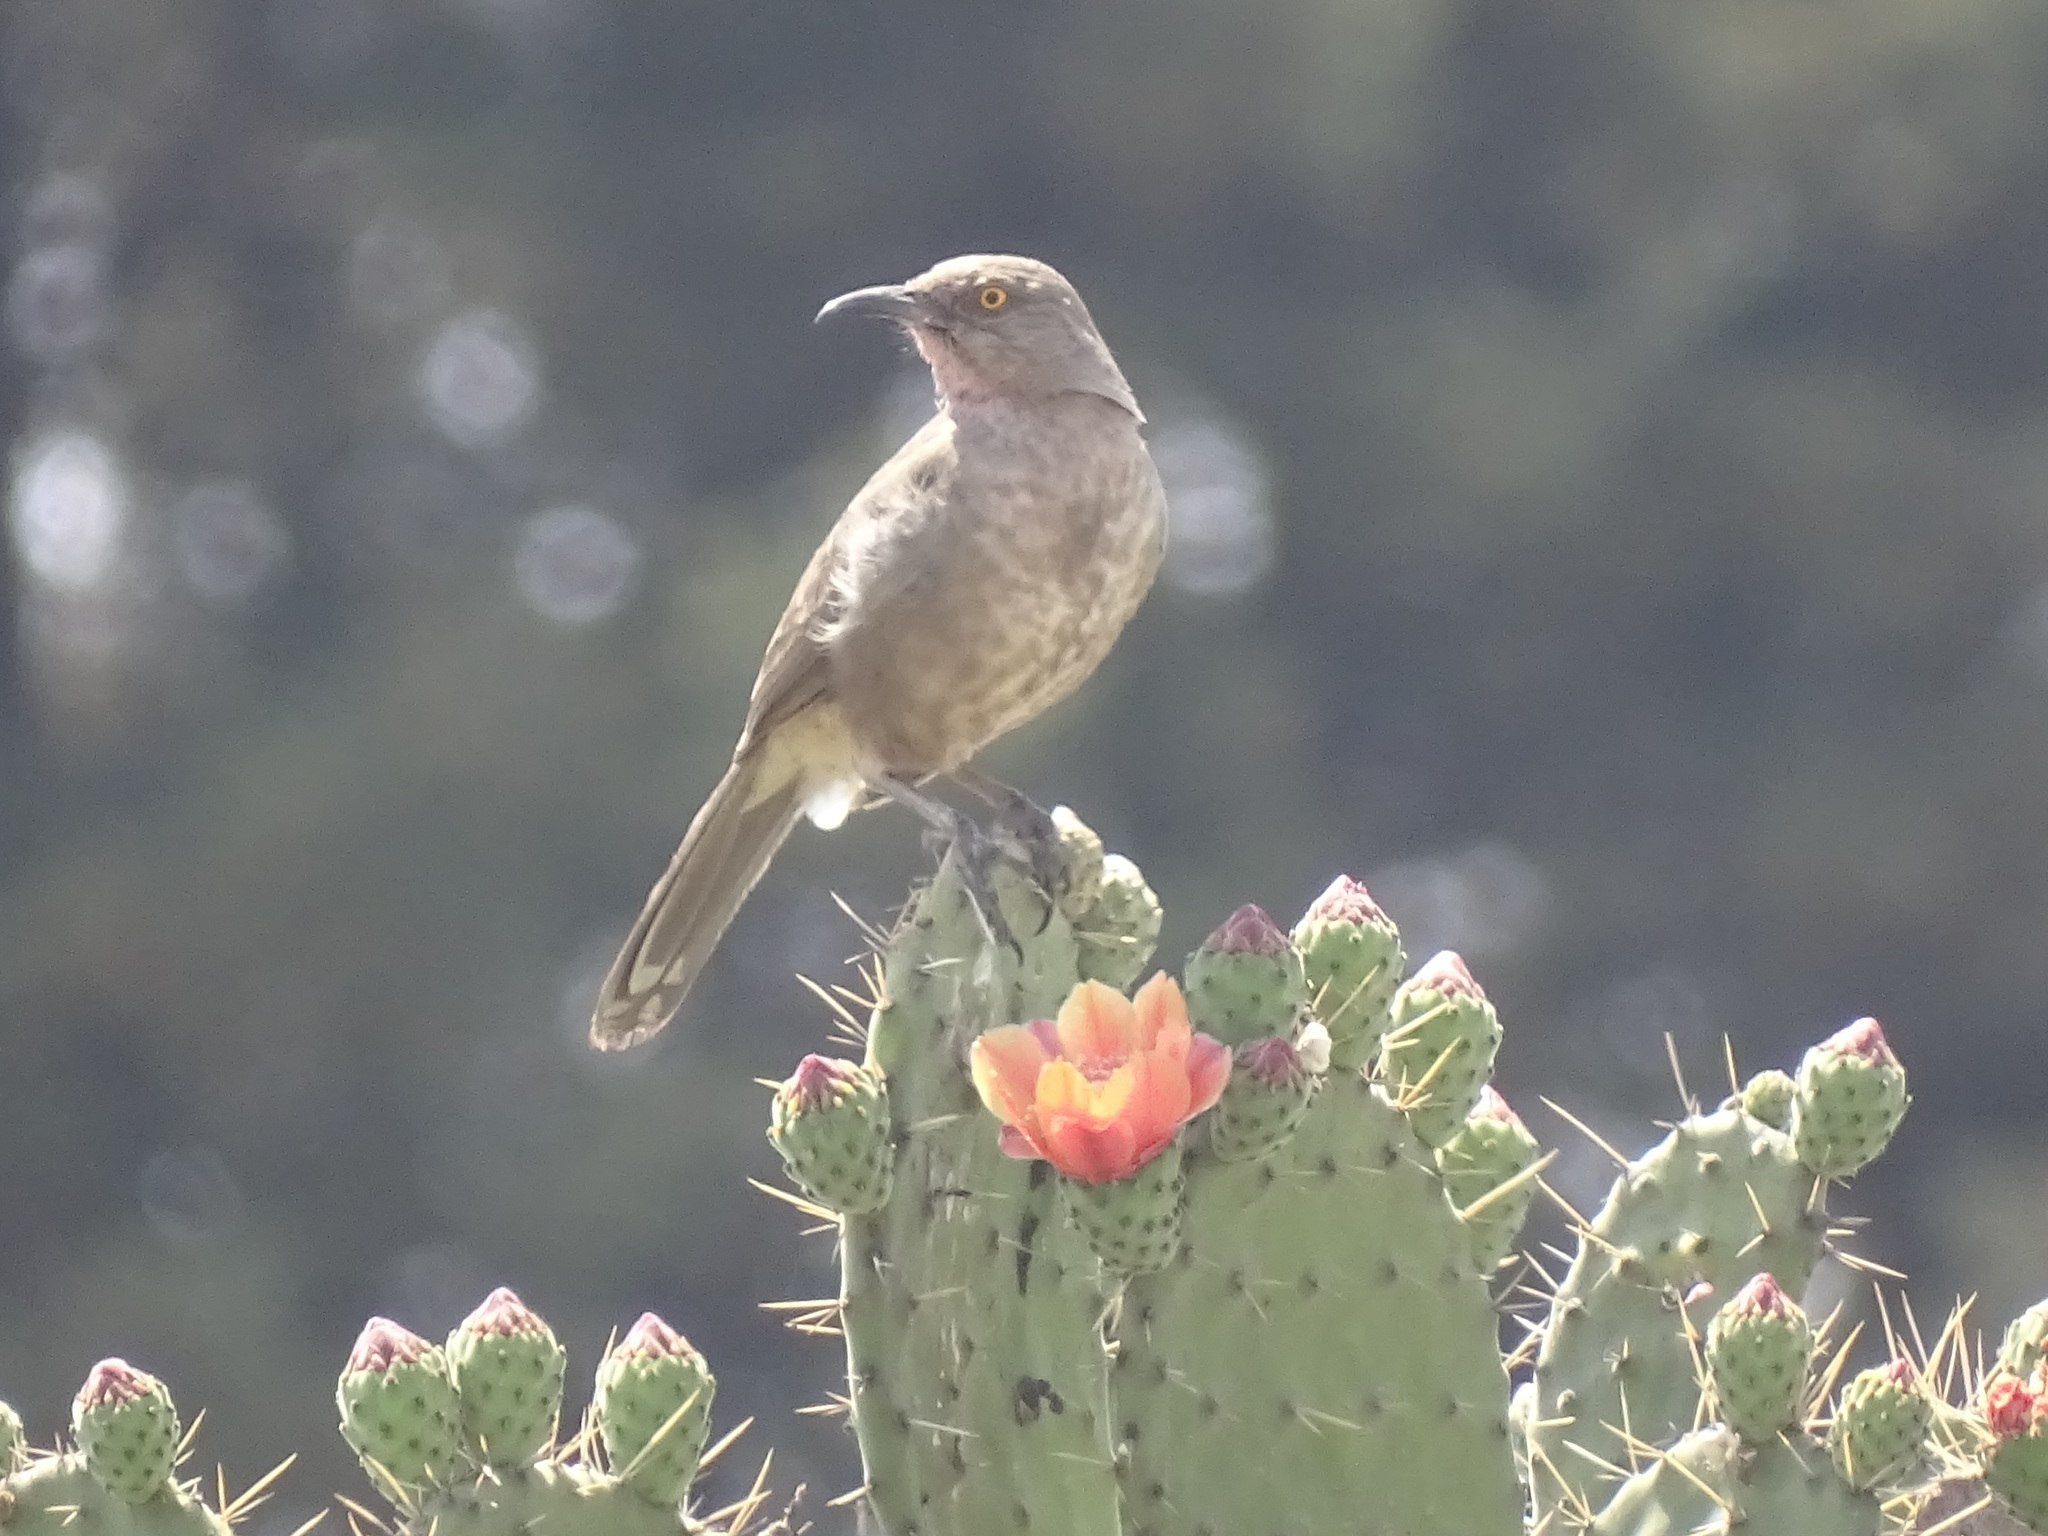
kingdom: Animalia
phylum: Chordata
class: Aves
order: Passeriformes
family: Mimidae
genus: Toxostoma
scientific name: Toxostoma curvirostre
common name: Curve-billed thrasher
